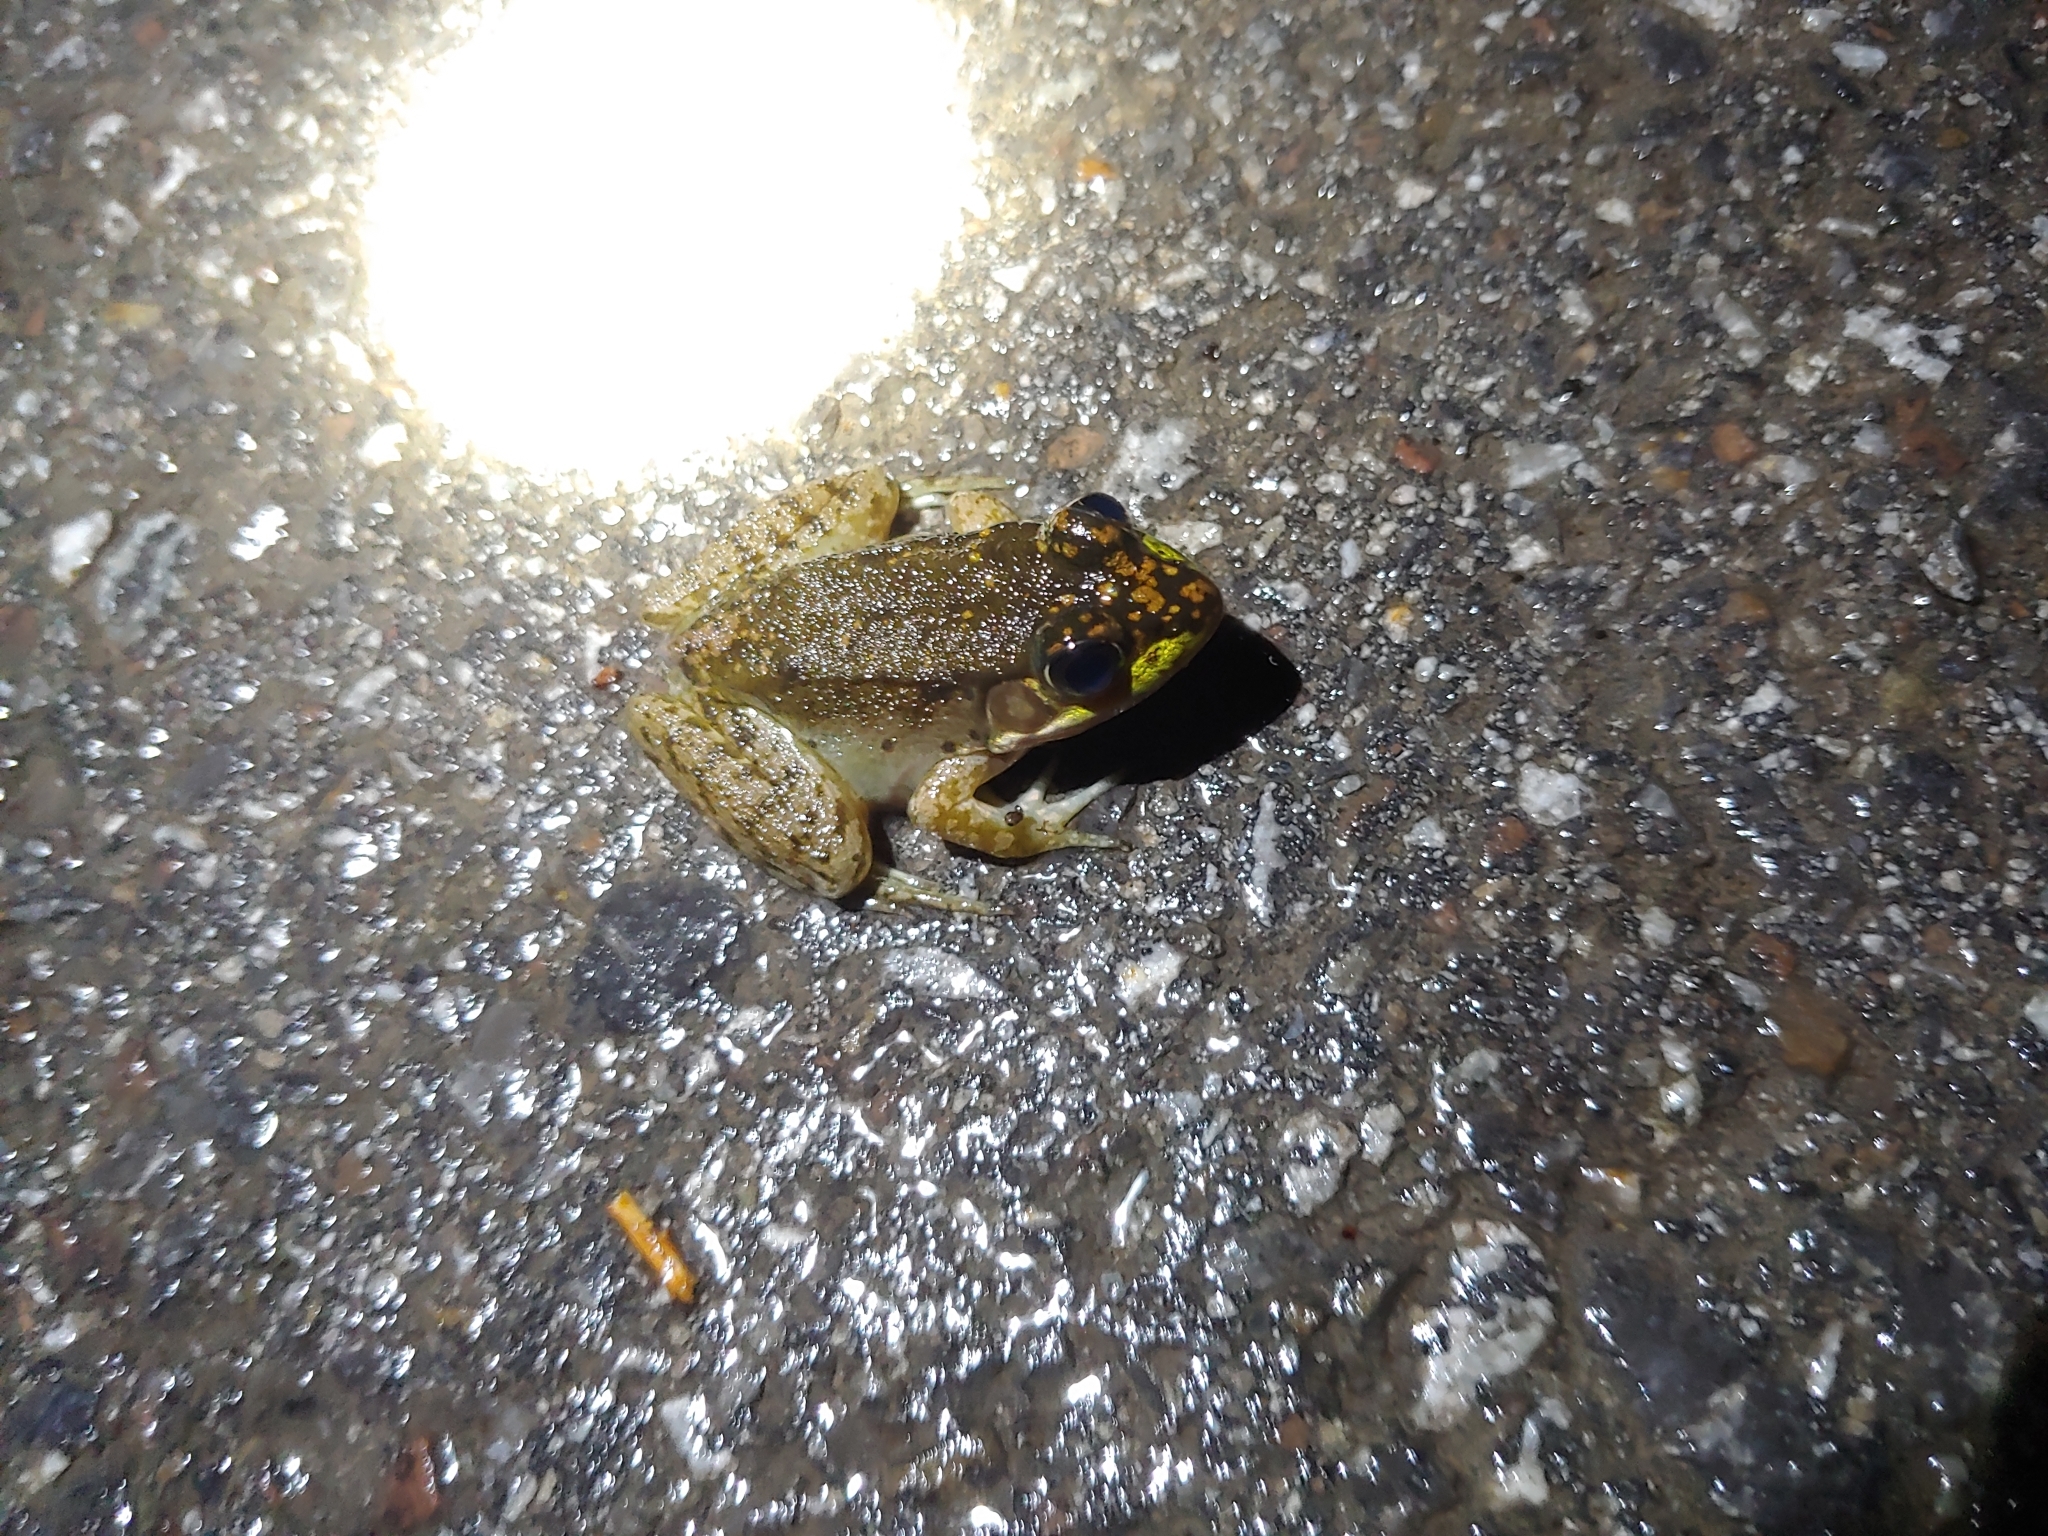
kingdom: Animalia
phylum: Chordata
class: Amphibia
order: Anura
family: Ranidae
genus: Lithobates
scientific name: Lithobates clamitans
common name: Green frog
